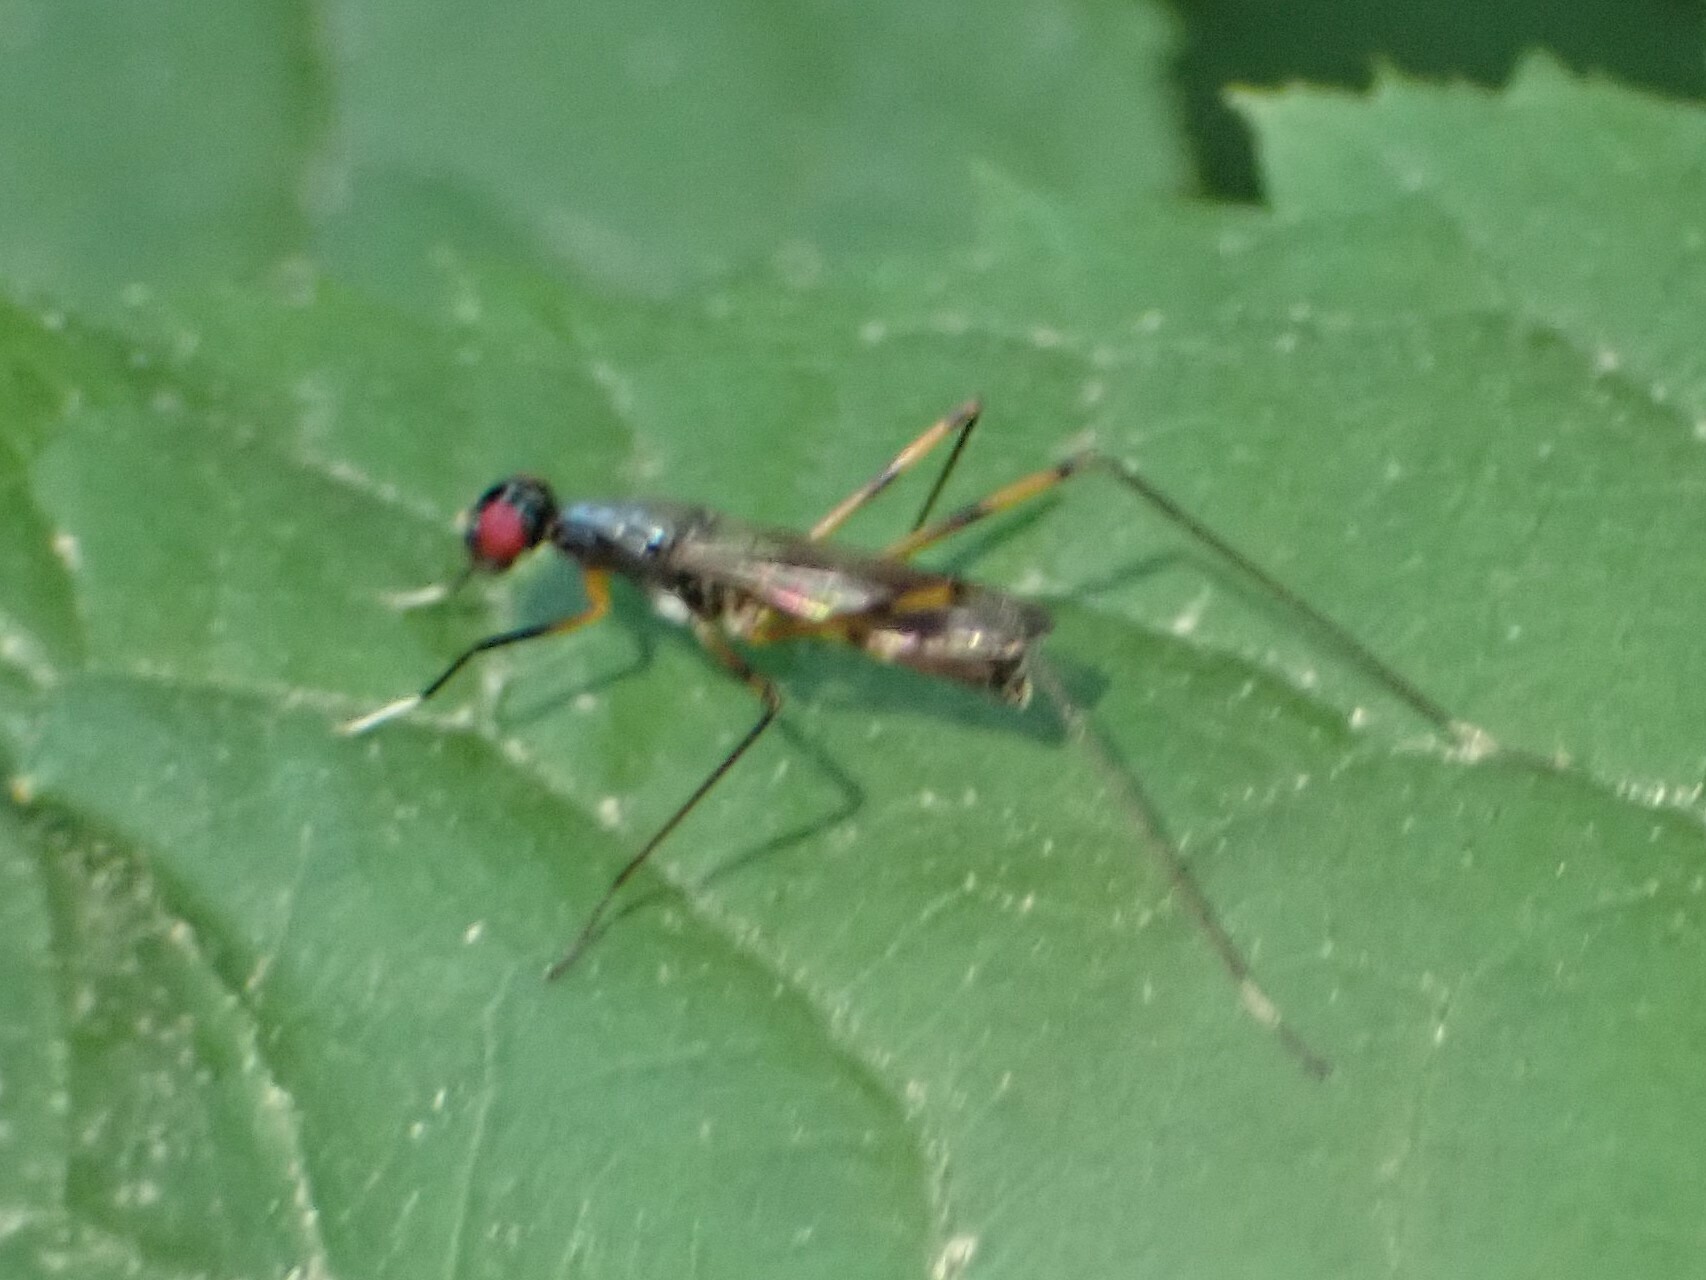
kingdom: Animalia
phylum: Arthropoda
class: Insecta
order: Diptera
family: Micropezidae
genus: Rainieria
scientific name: Rainieria antennaepes
